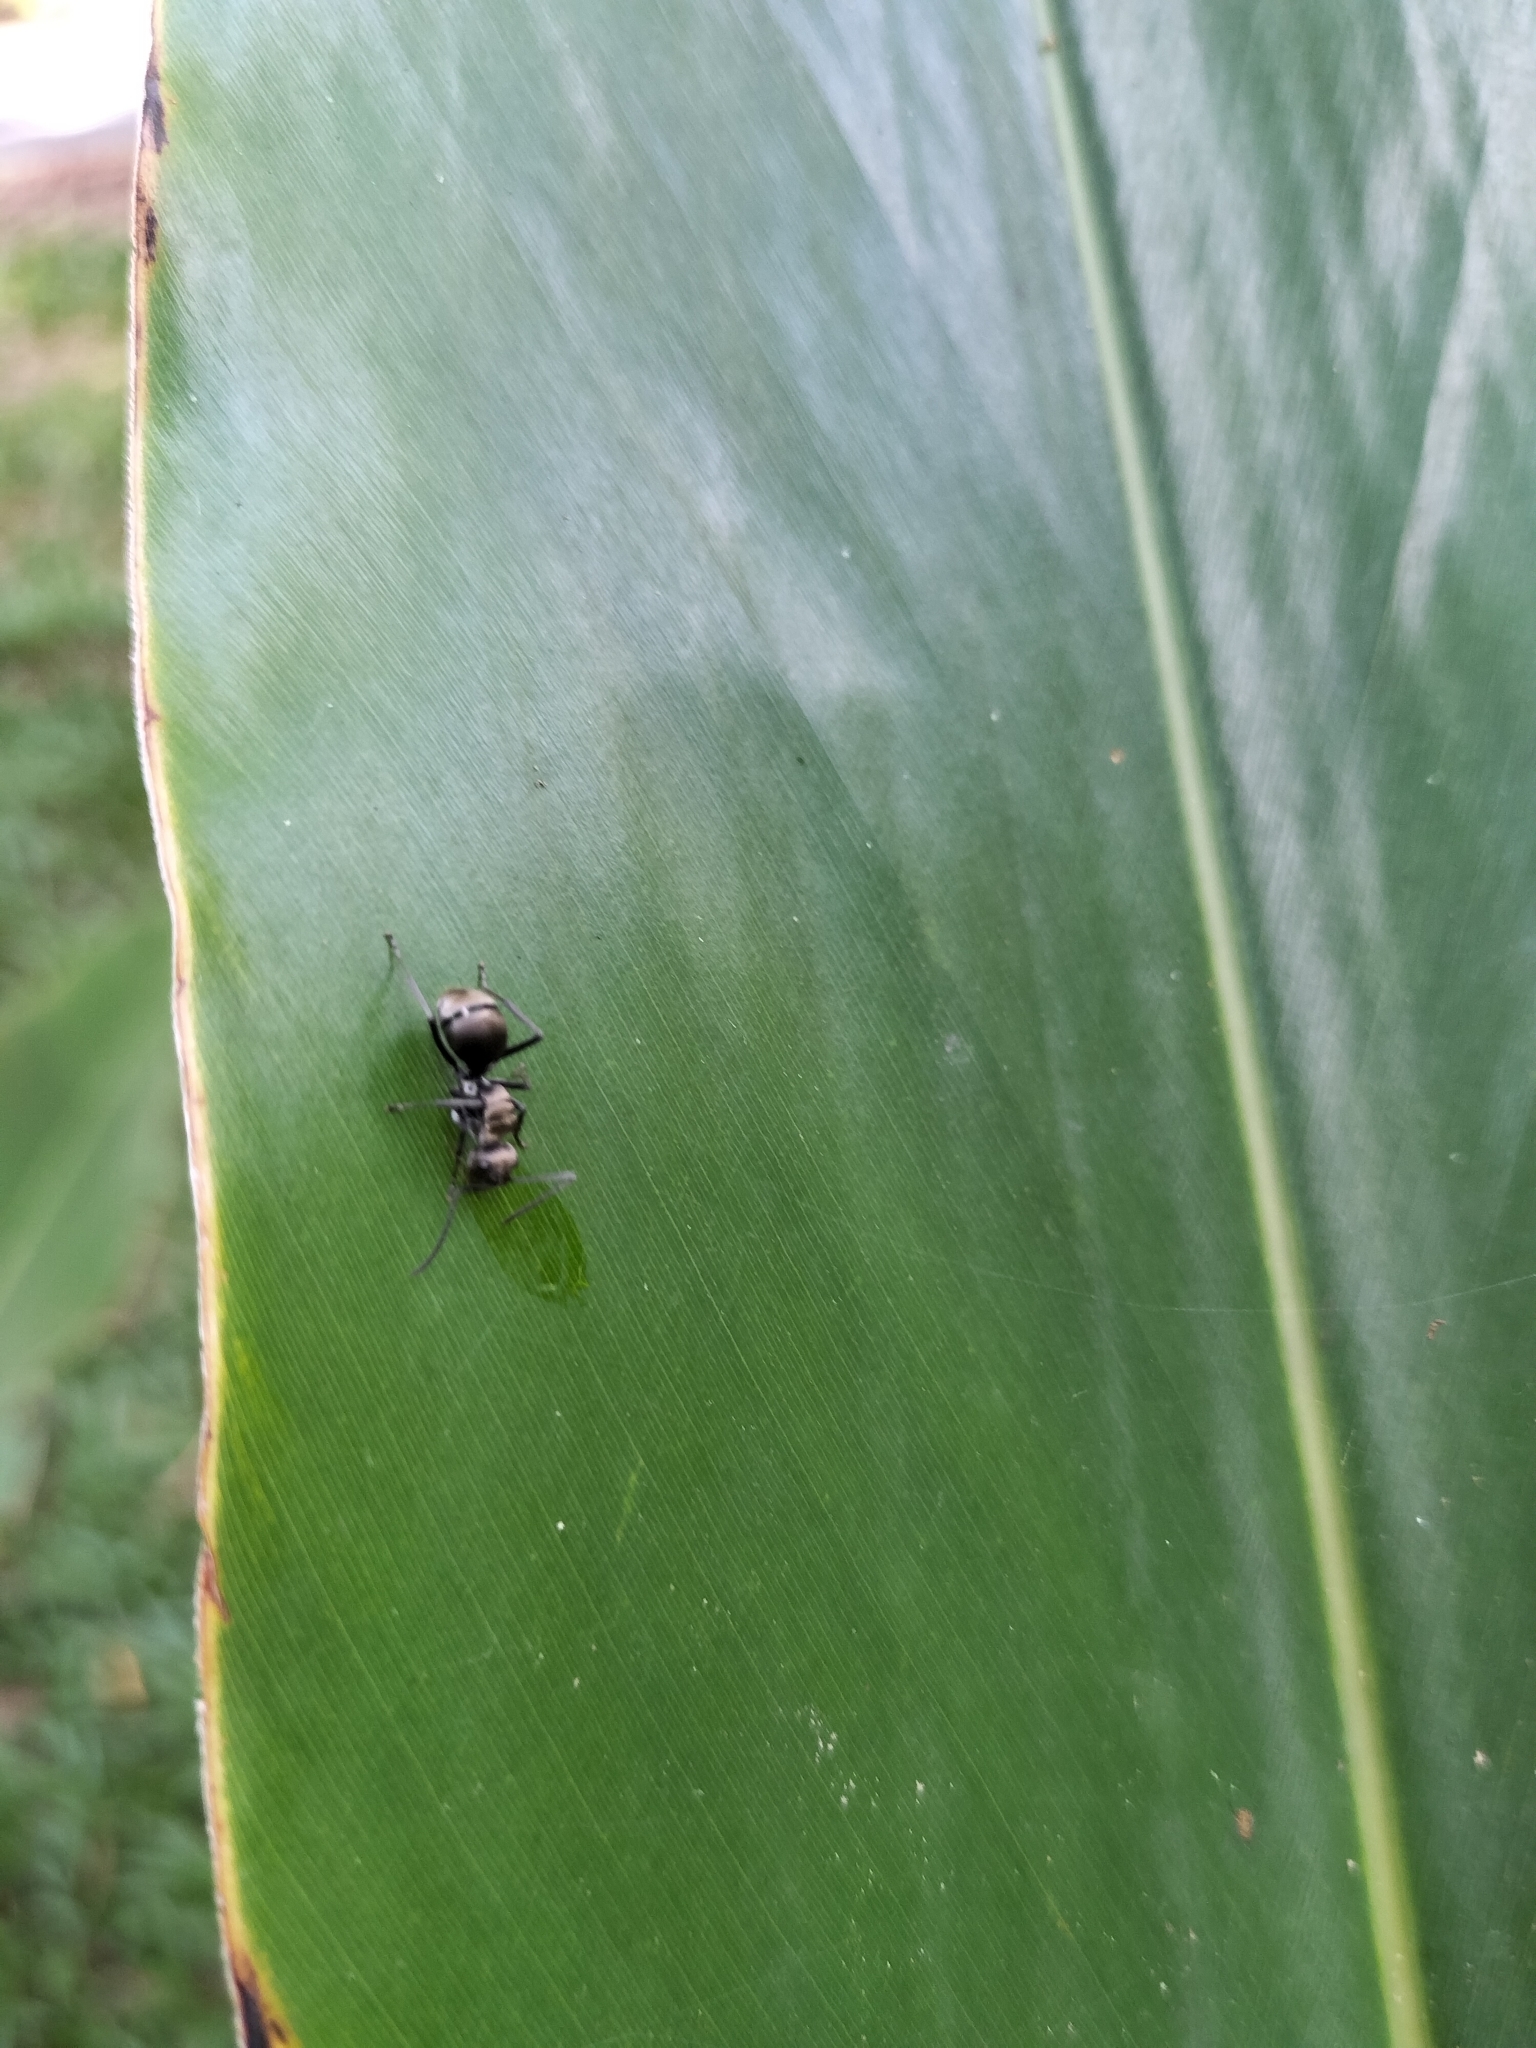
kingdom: Animalia
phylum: Arthropoda
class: Insecta
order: Hymenoptera
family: Formicidae
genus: Polyrhachis
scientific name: Polyrhachis foreli
